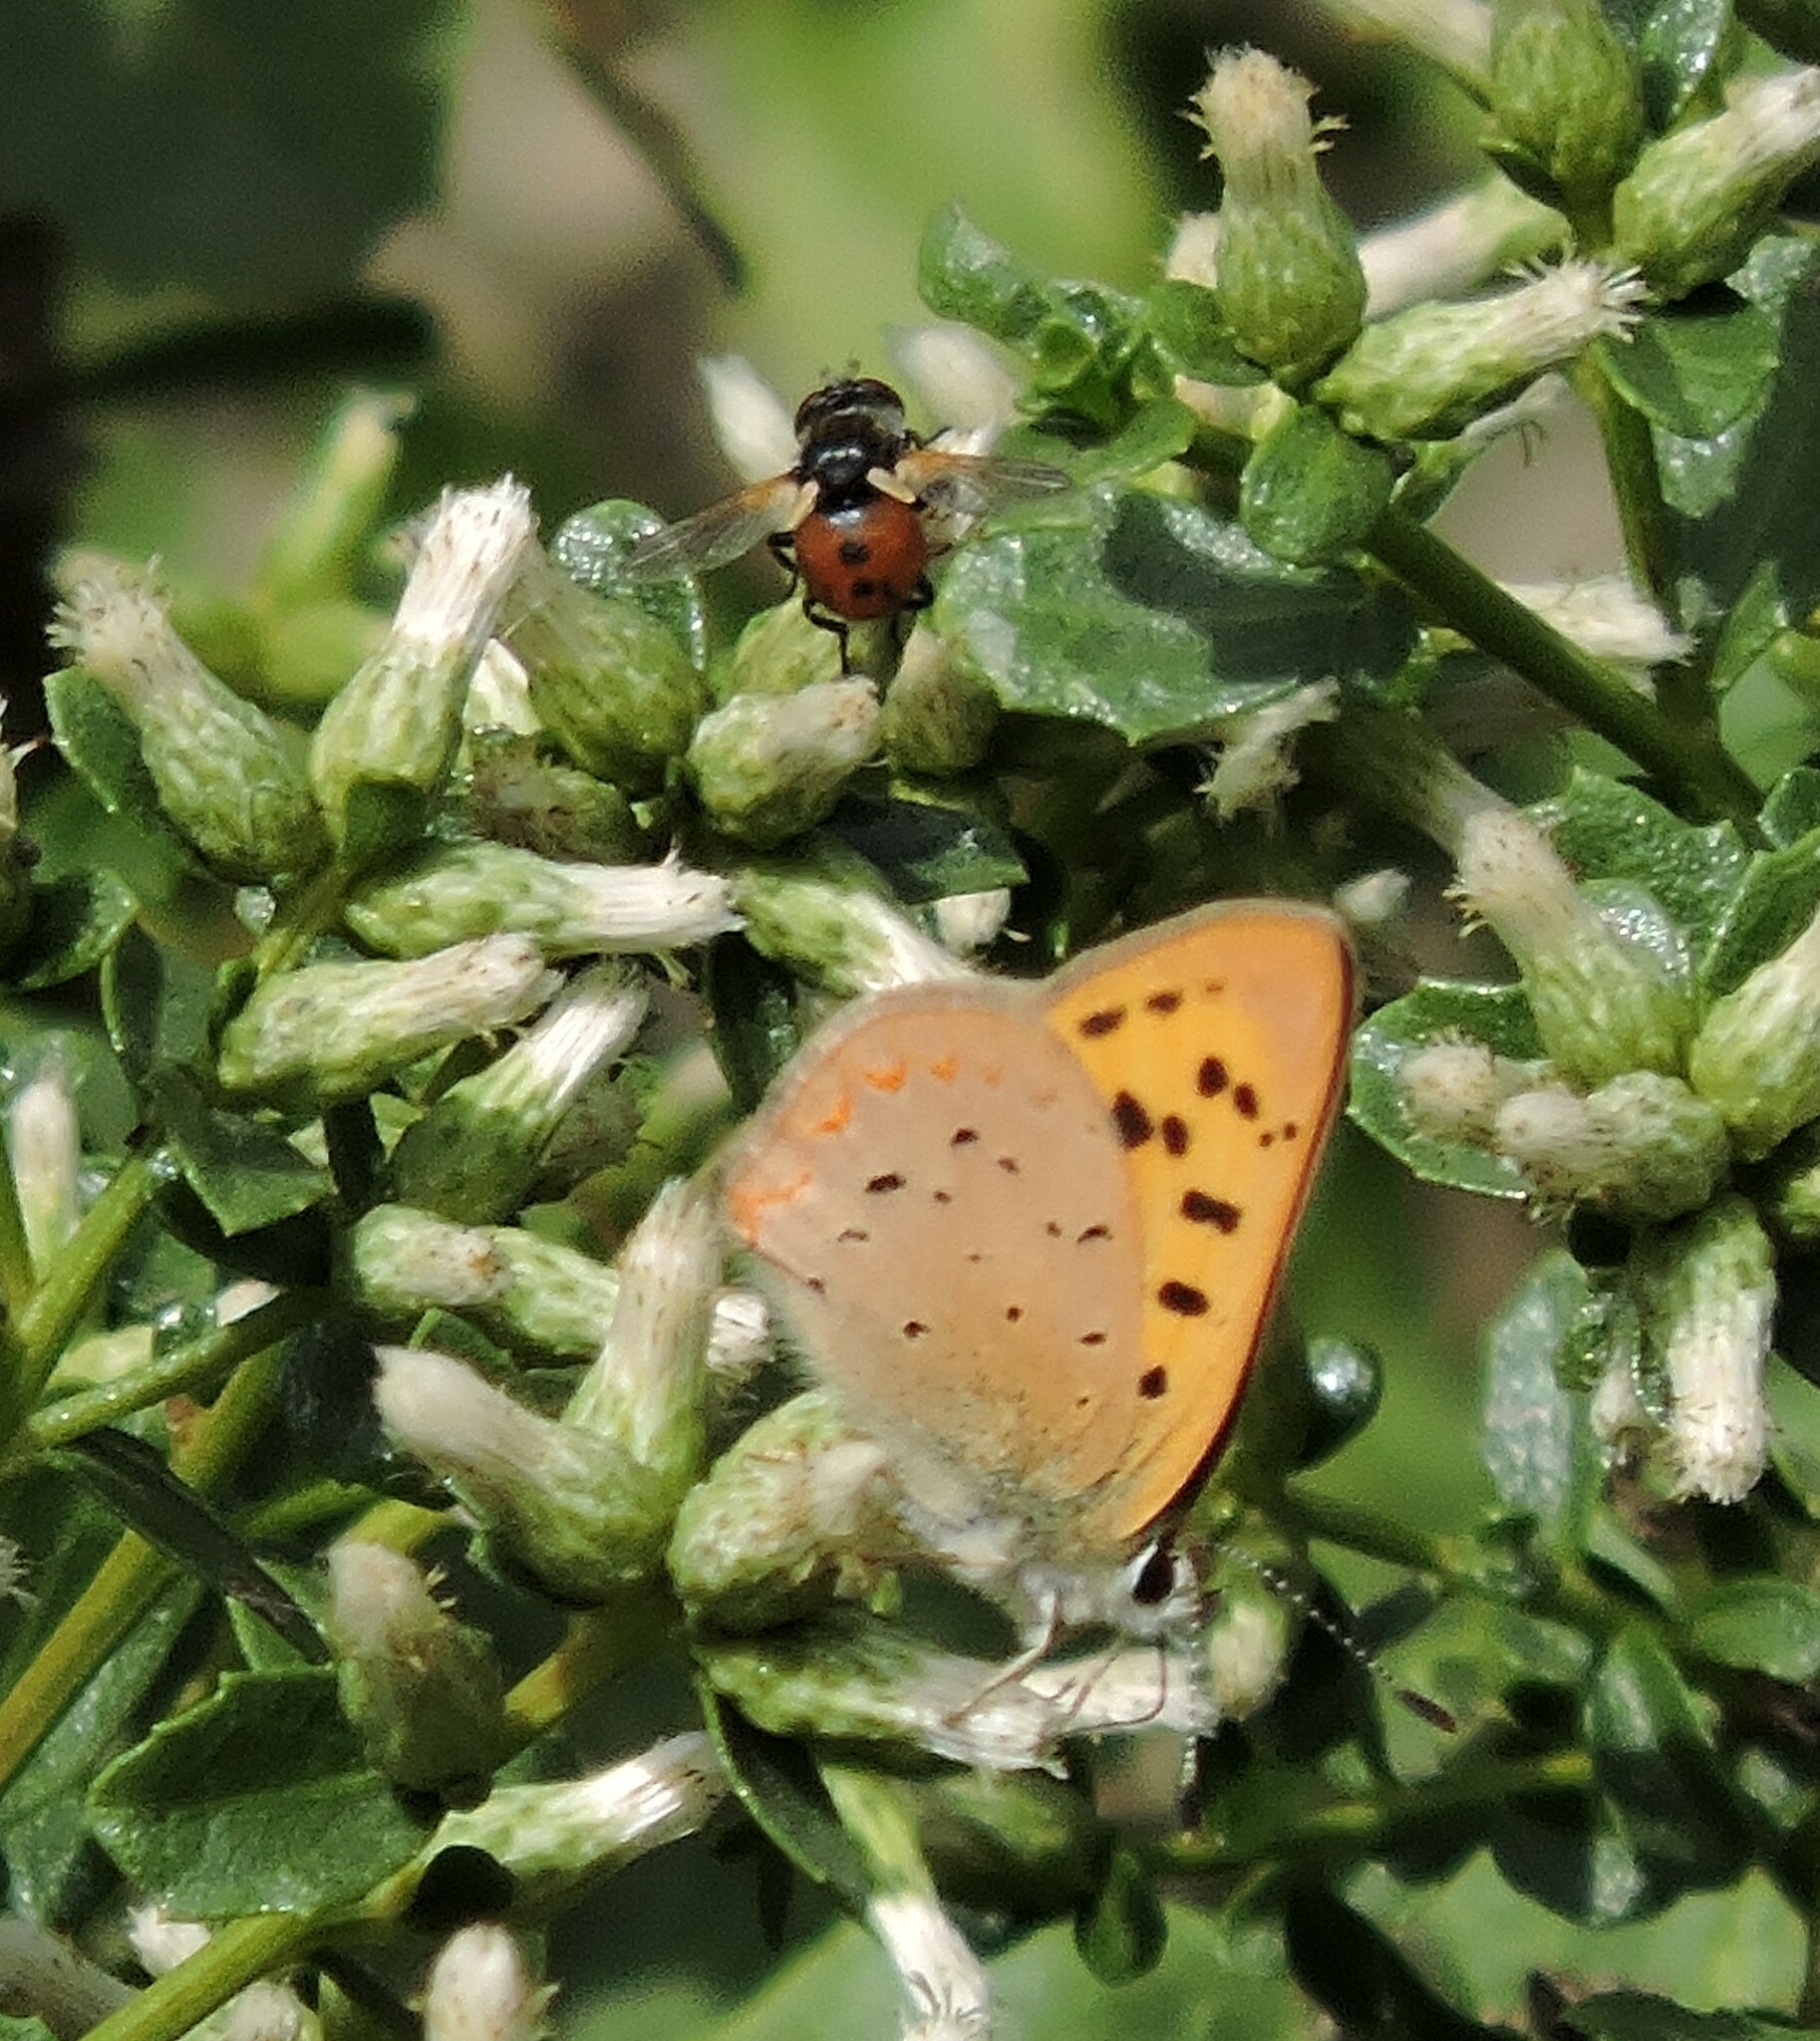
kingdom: Animalia
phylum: Arthropoda
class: Insecta
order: Lepidoptera
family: Lycaenidae
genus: Tharsalea
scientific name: Tharsalea helloides
